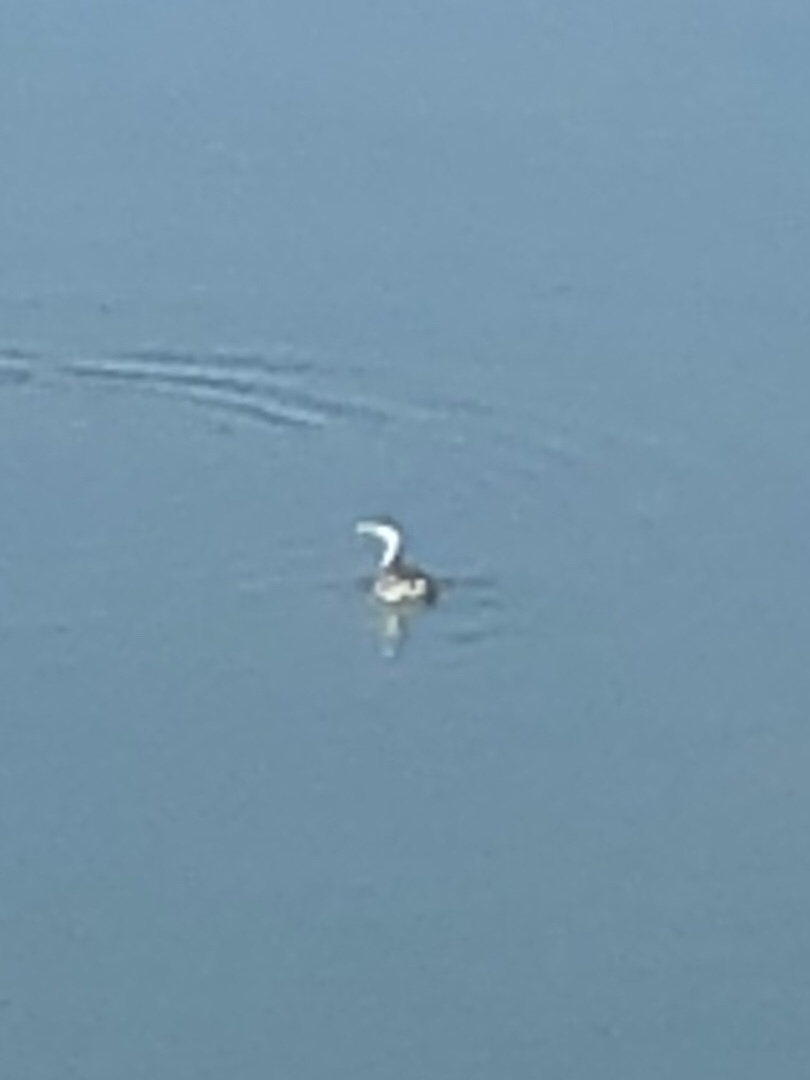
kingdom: Animalia
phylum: Chordata
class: Aves
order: Podicipediformes
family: Podicipedidae
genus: Aechmophorus
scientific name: Aechmophorus occidentalis
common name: Western grebe
